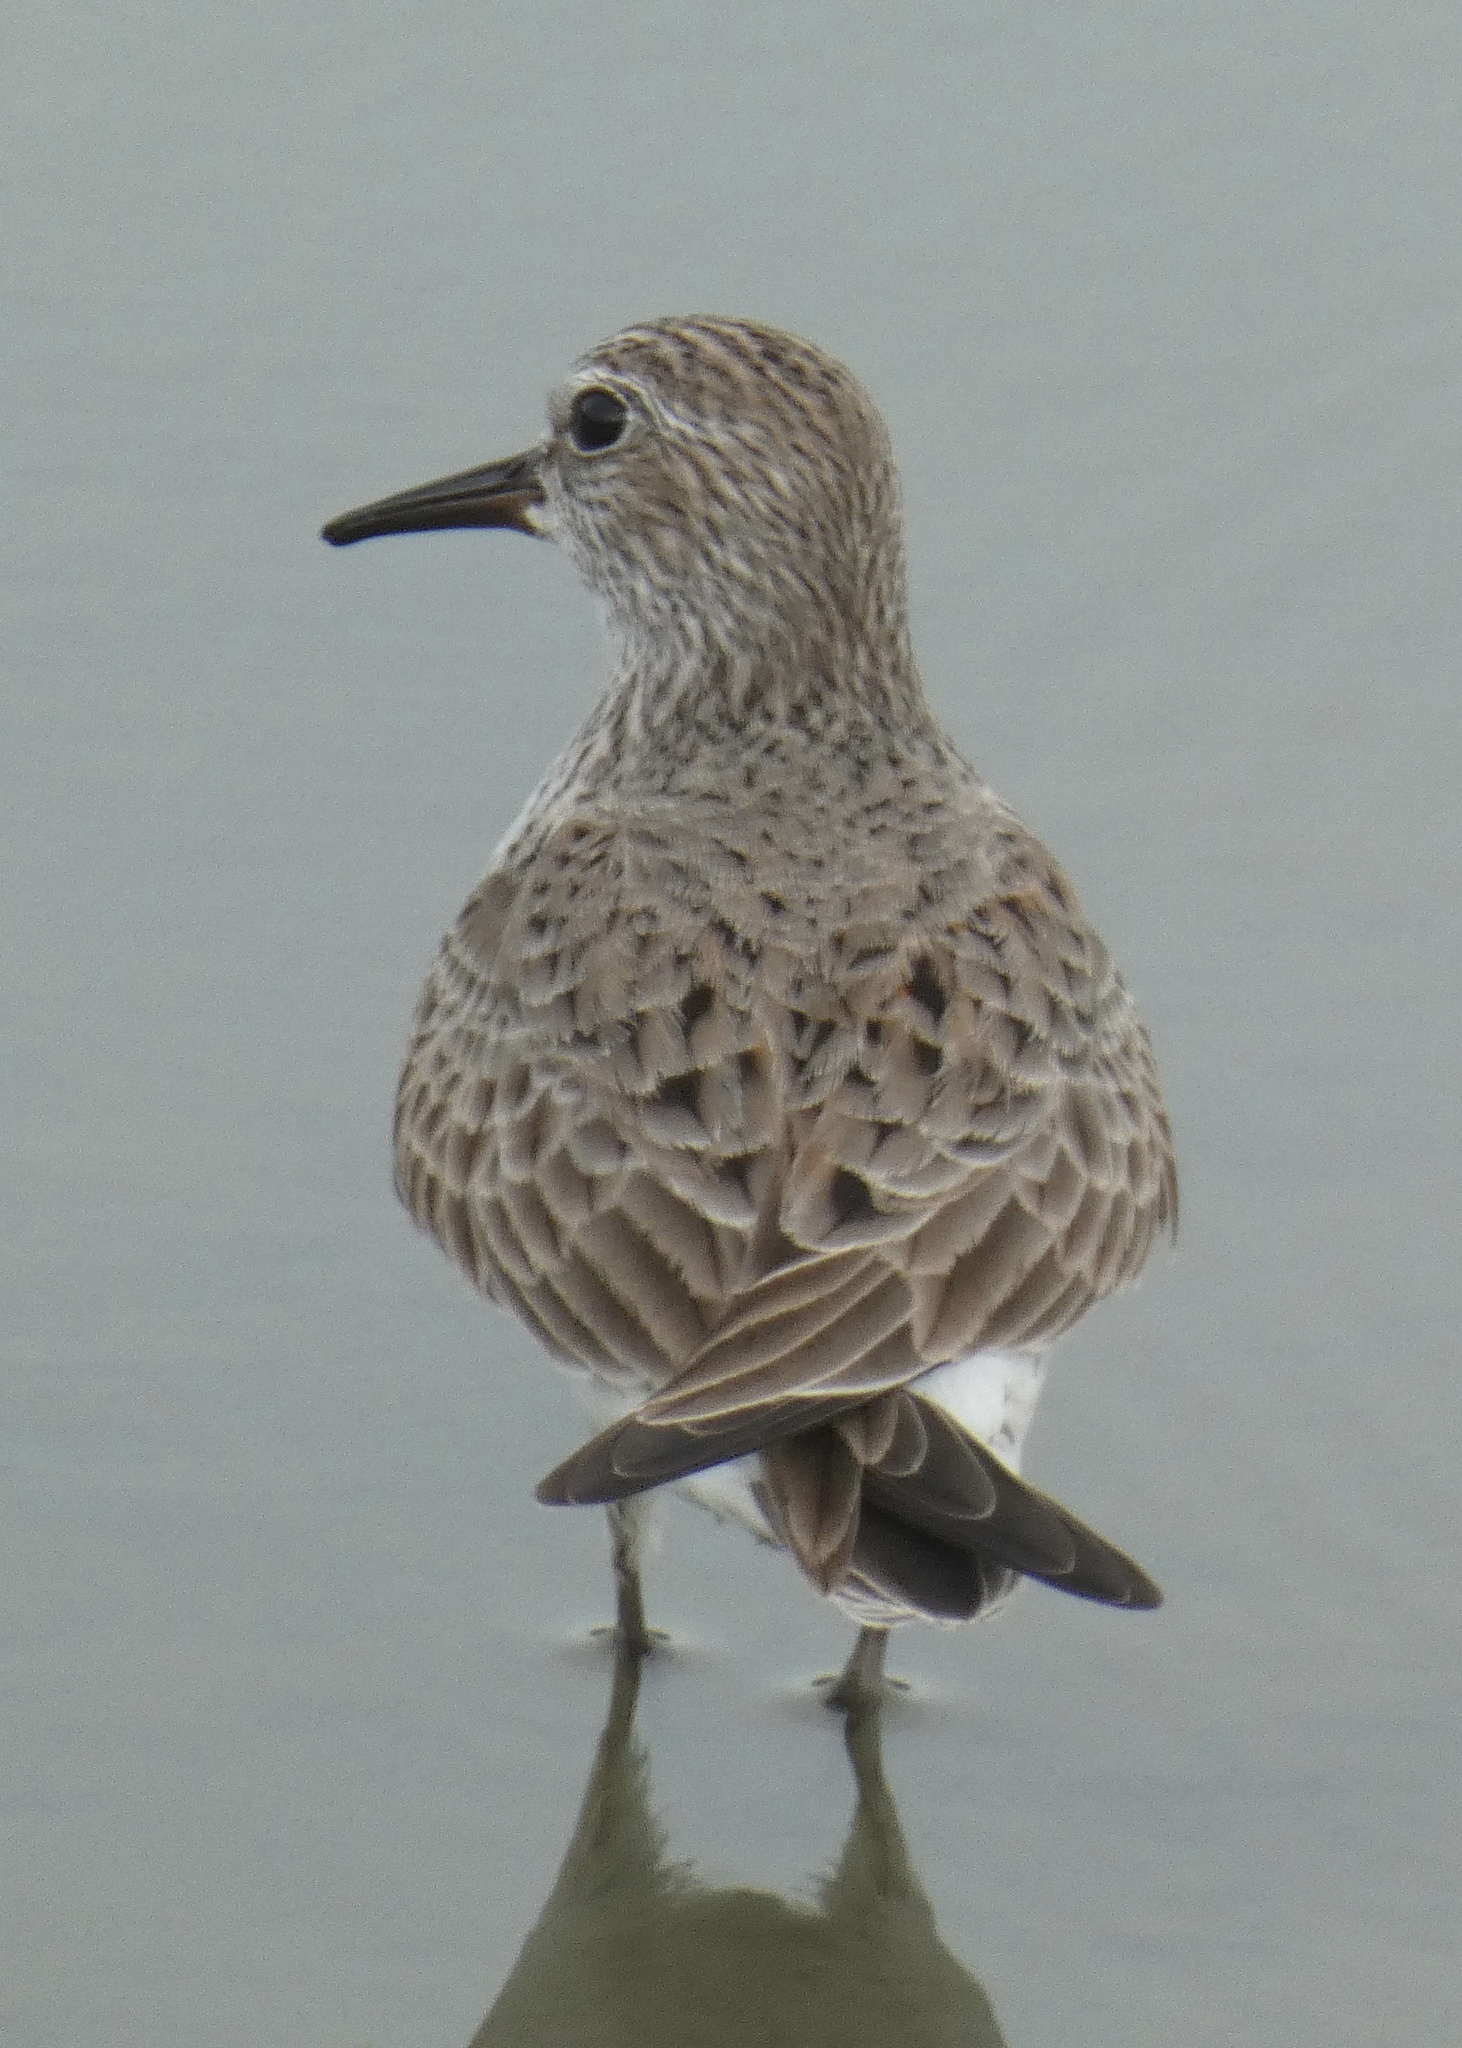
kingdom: Animalia
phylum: Chordata
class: Aves
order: Charadriiformes
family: Scolopacidae
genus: Calidris
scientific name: Calidris fuscicollis
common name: White-rumped sandpiper
